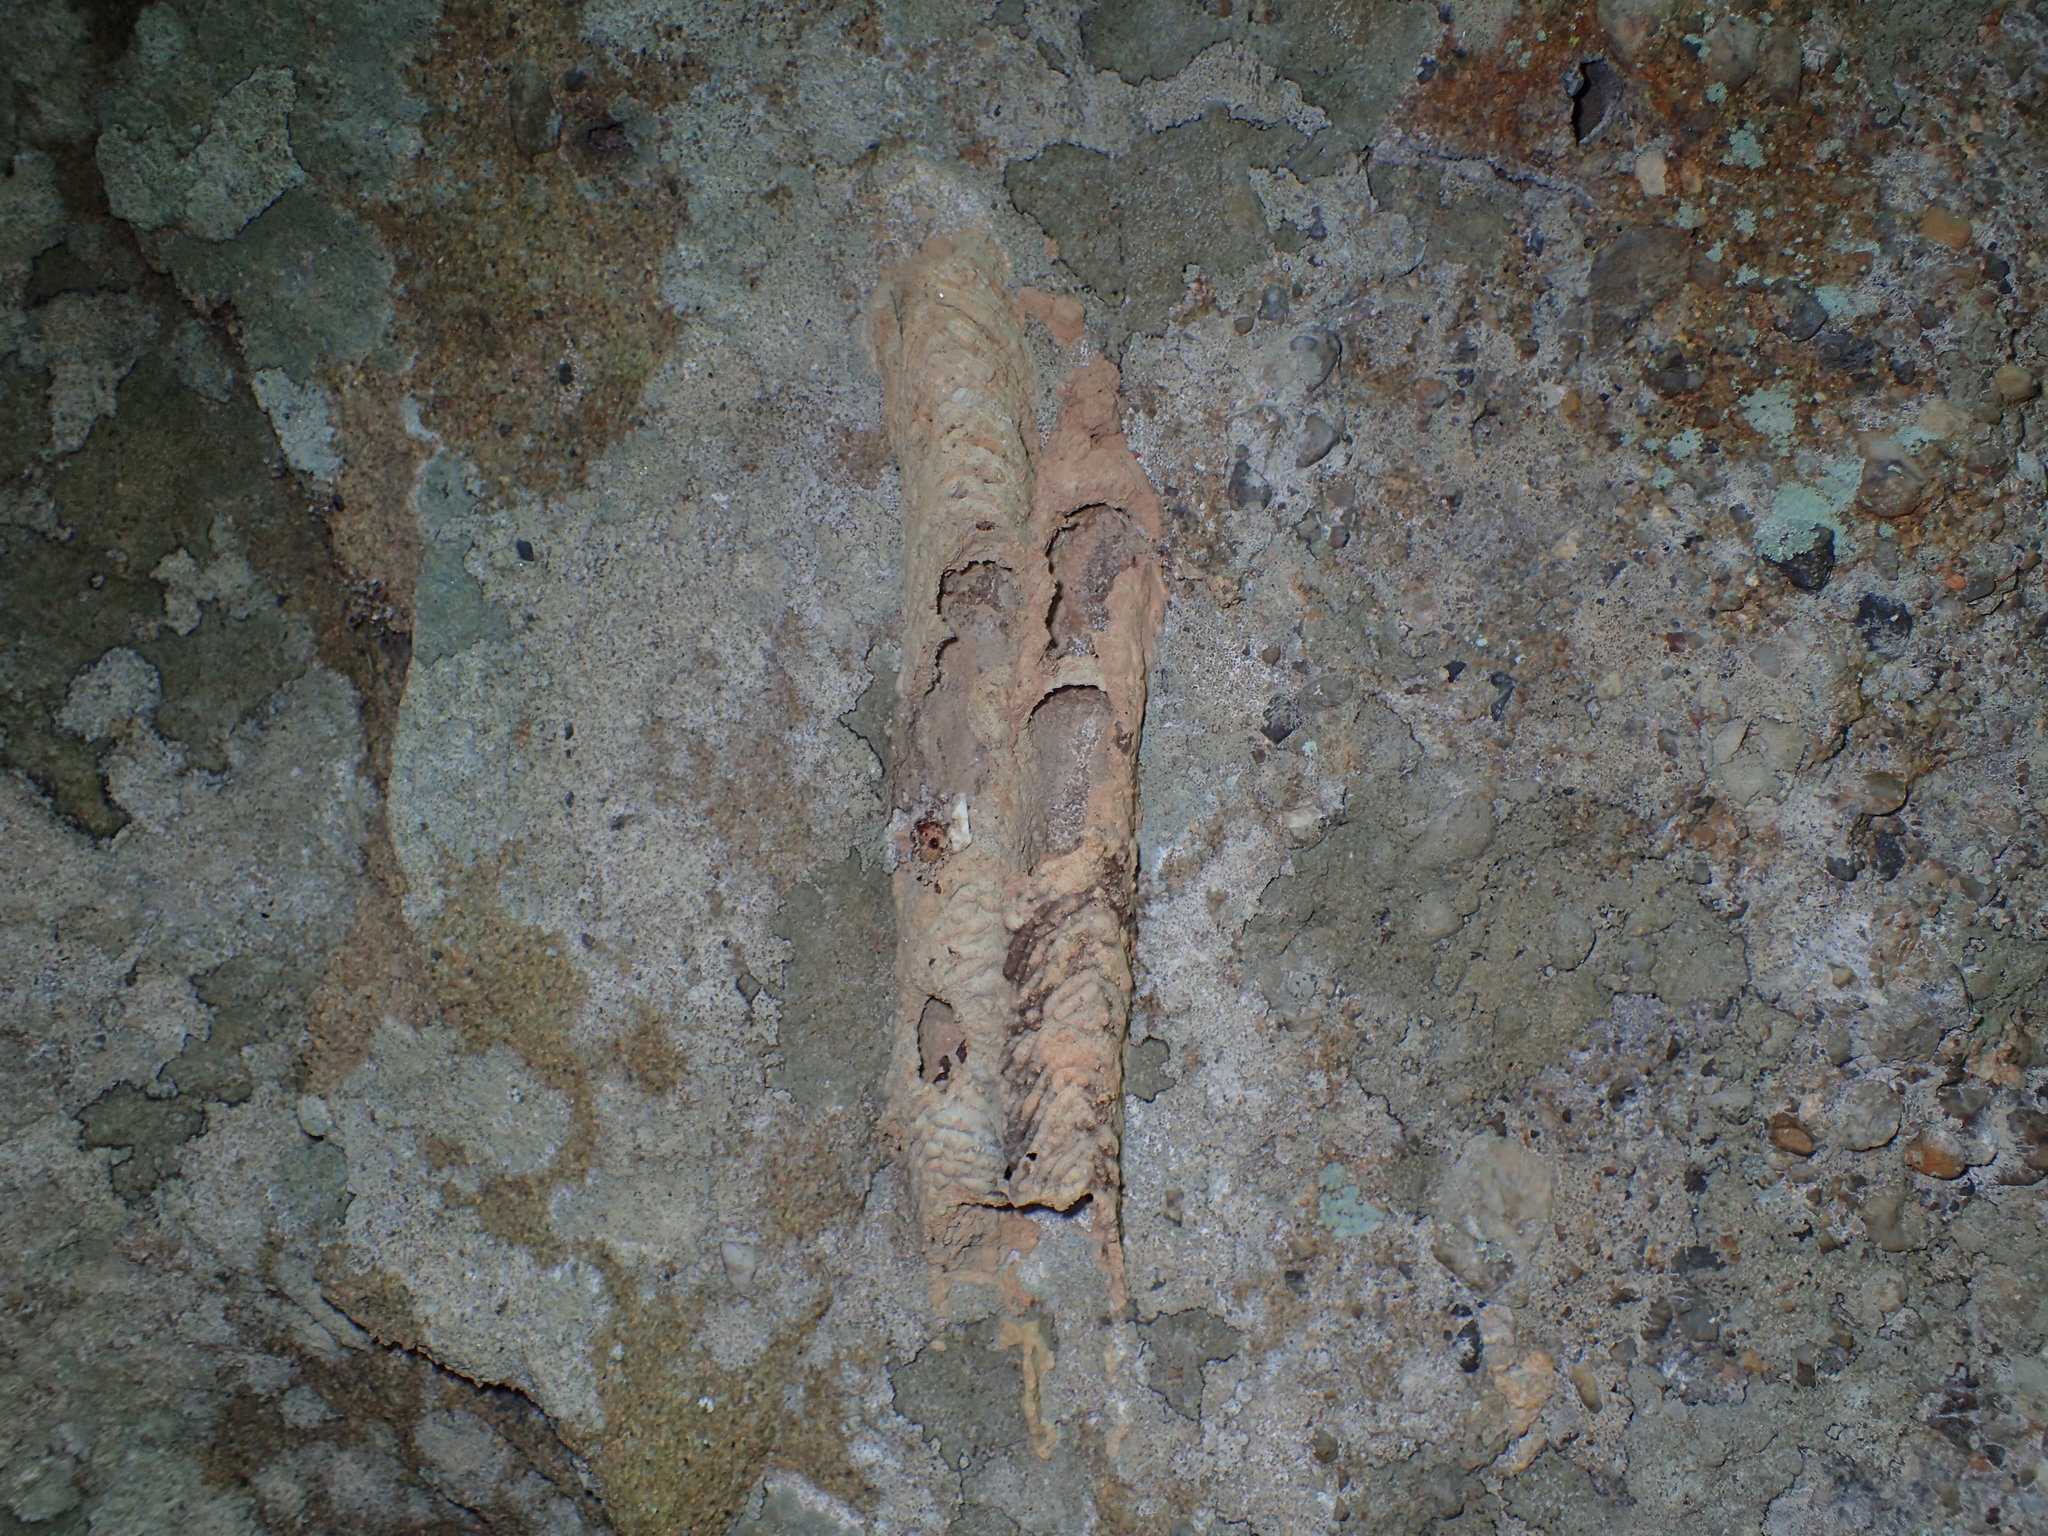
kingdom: Animalia
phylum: Arthropoda
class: Insecta
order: Hymenoptera
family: Crabronidae
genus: Trypoxylon
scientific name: Trypoxylon politum
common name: Organ-pipe mud-dauber wasp
